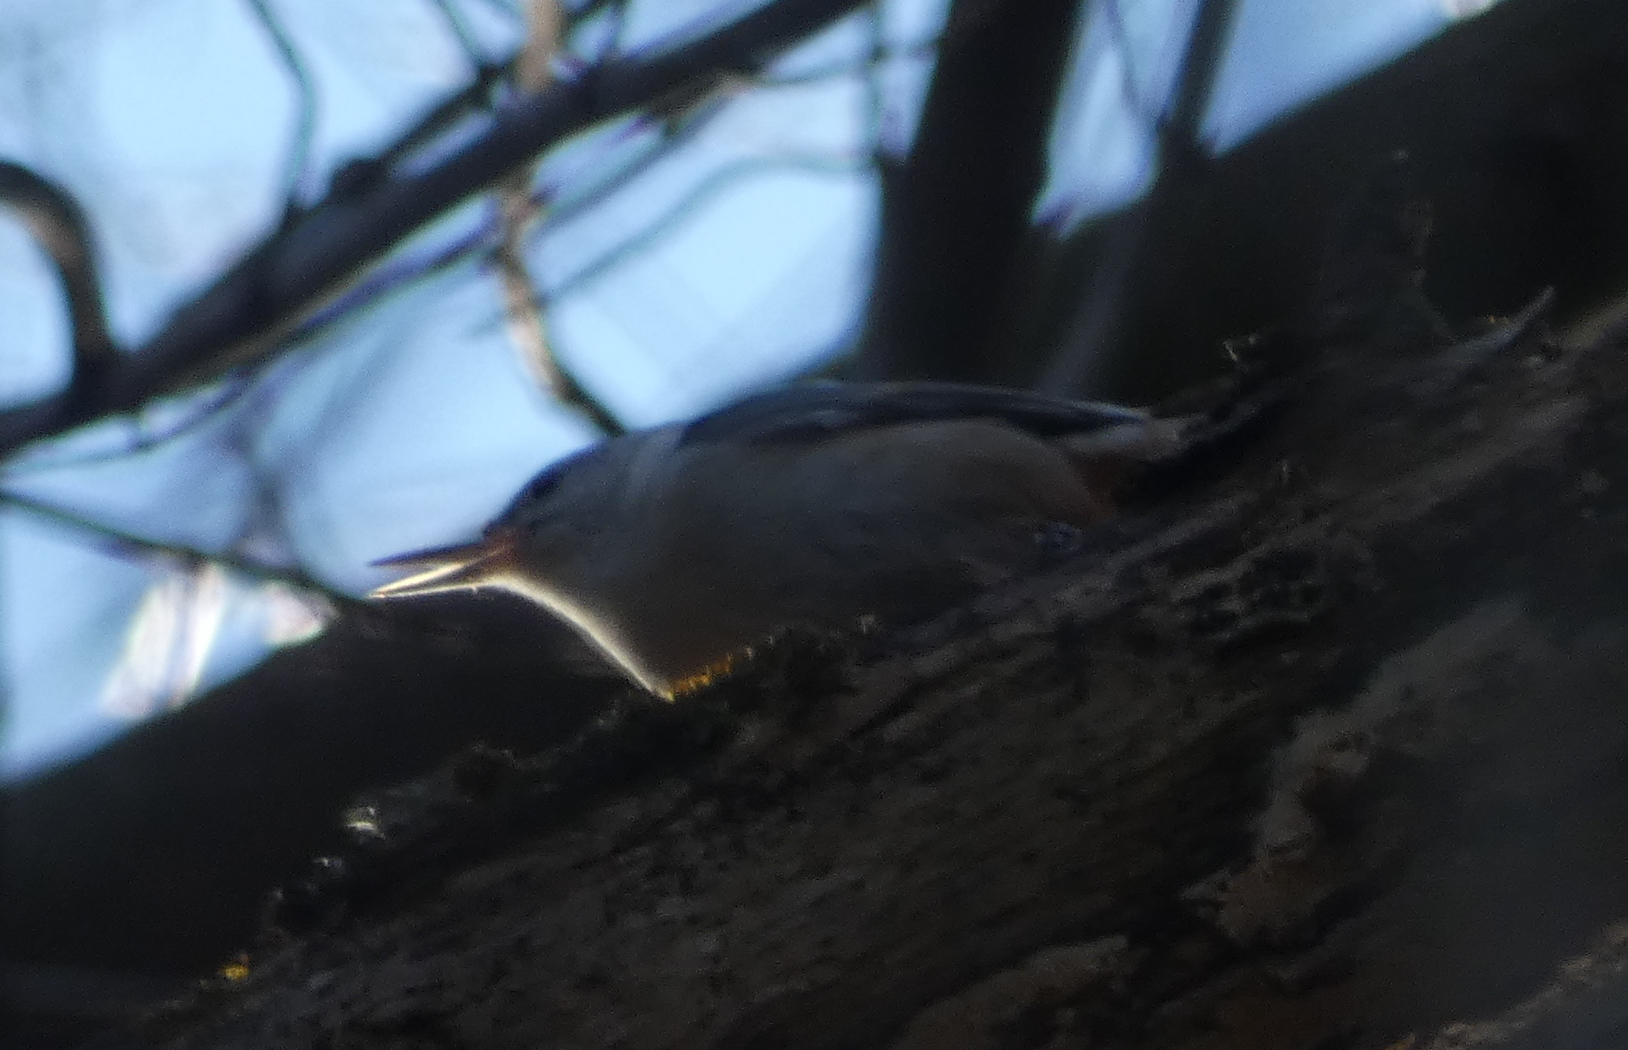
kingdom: Animalia
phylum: Chordata
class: Aves
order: Passeriformes
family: Sittidae
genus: Sitta
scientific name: Sitta carolinensis
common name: White-breasted nuthatch
